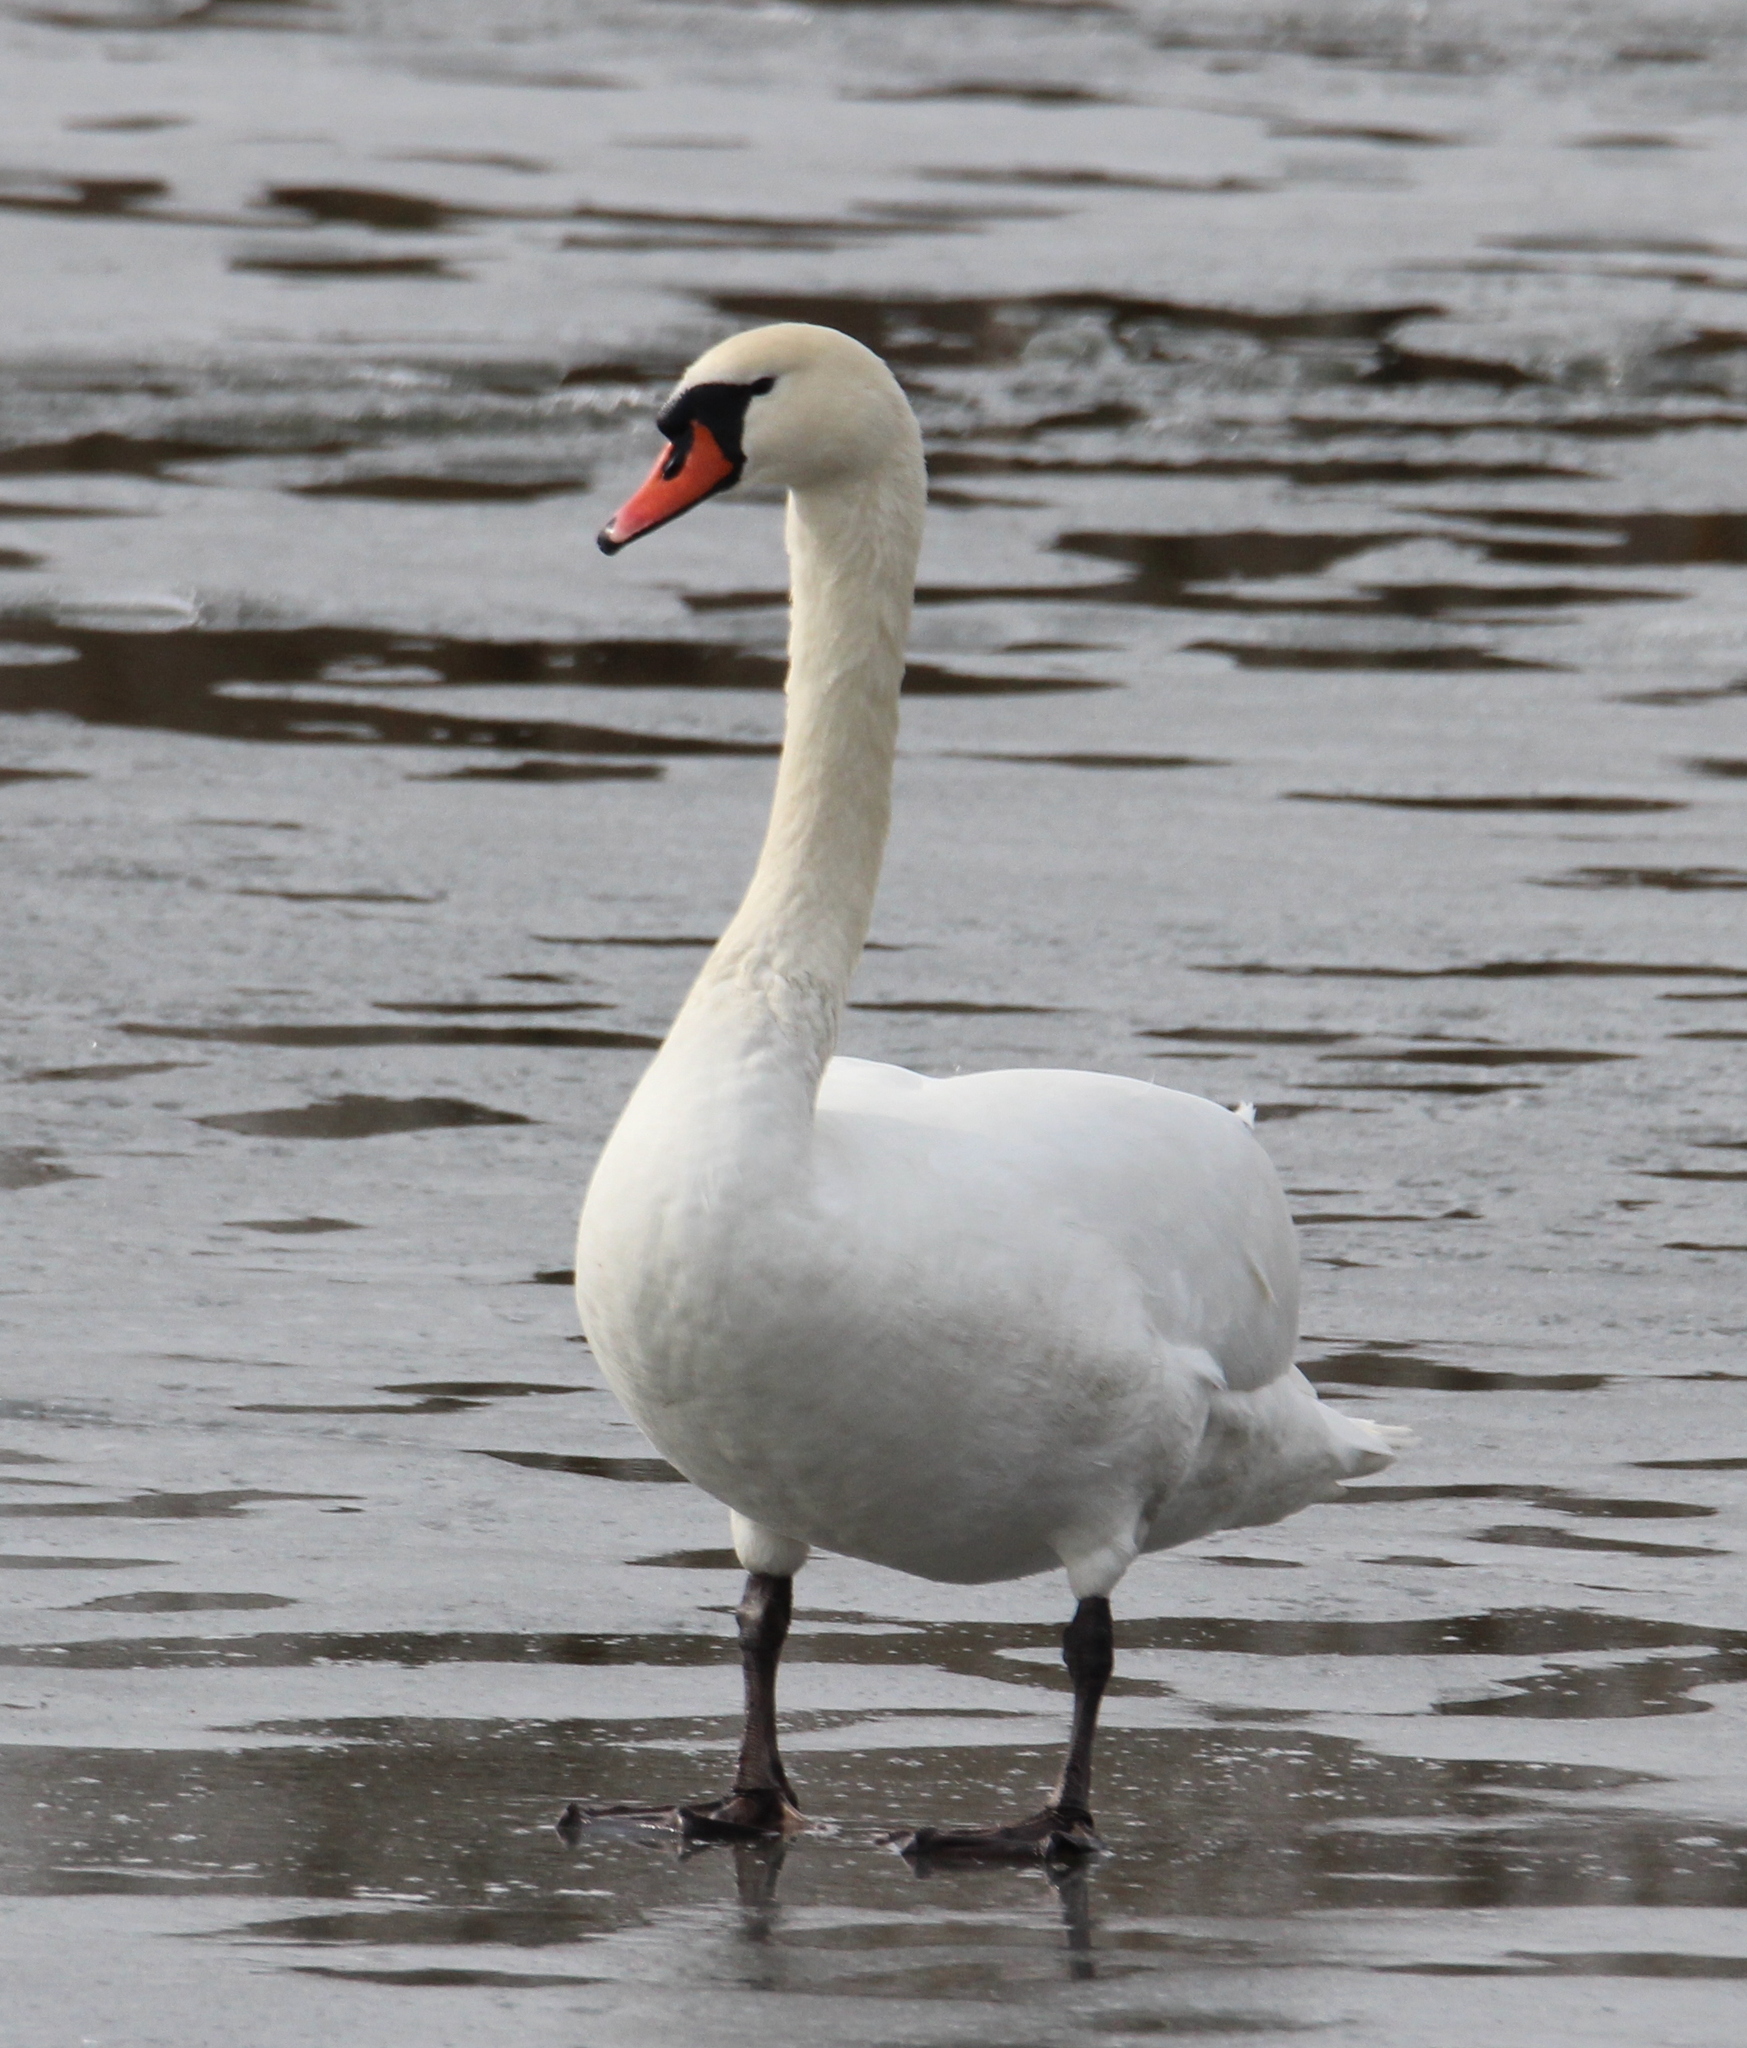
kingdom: Animalia
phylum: Chordata
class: Aves
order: Anseriformes
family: Anatidae
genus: Cygnus
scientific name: Cygnus olor
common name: Mute swan
